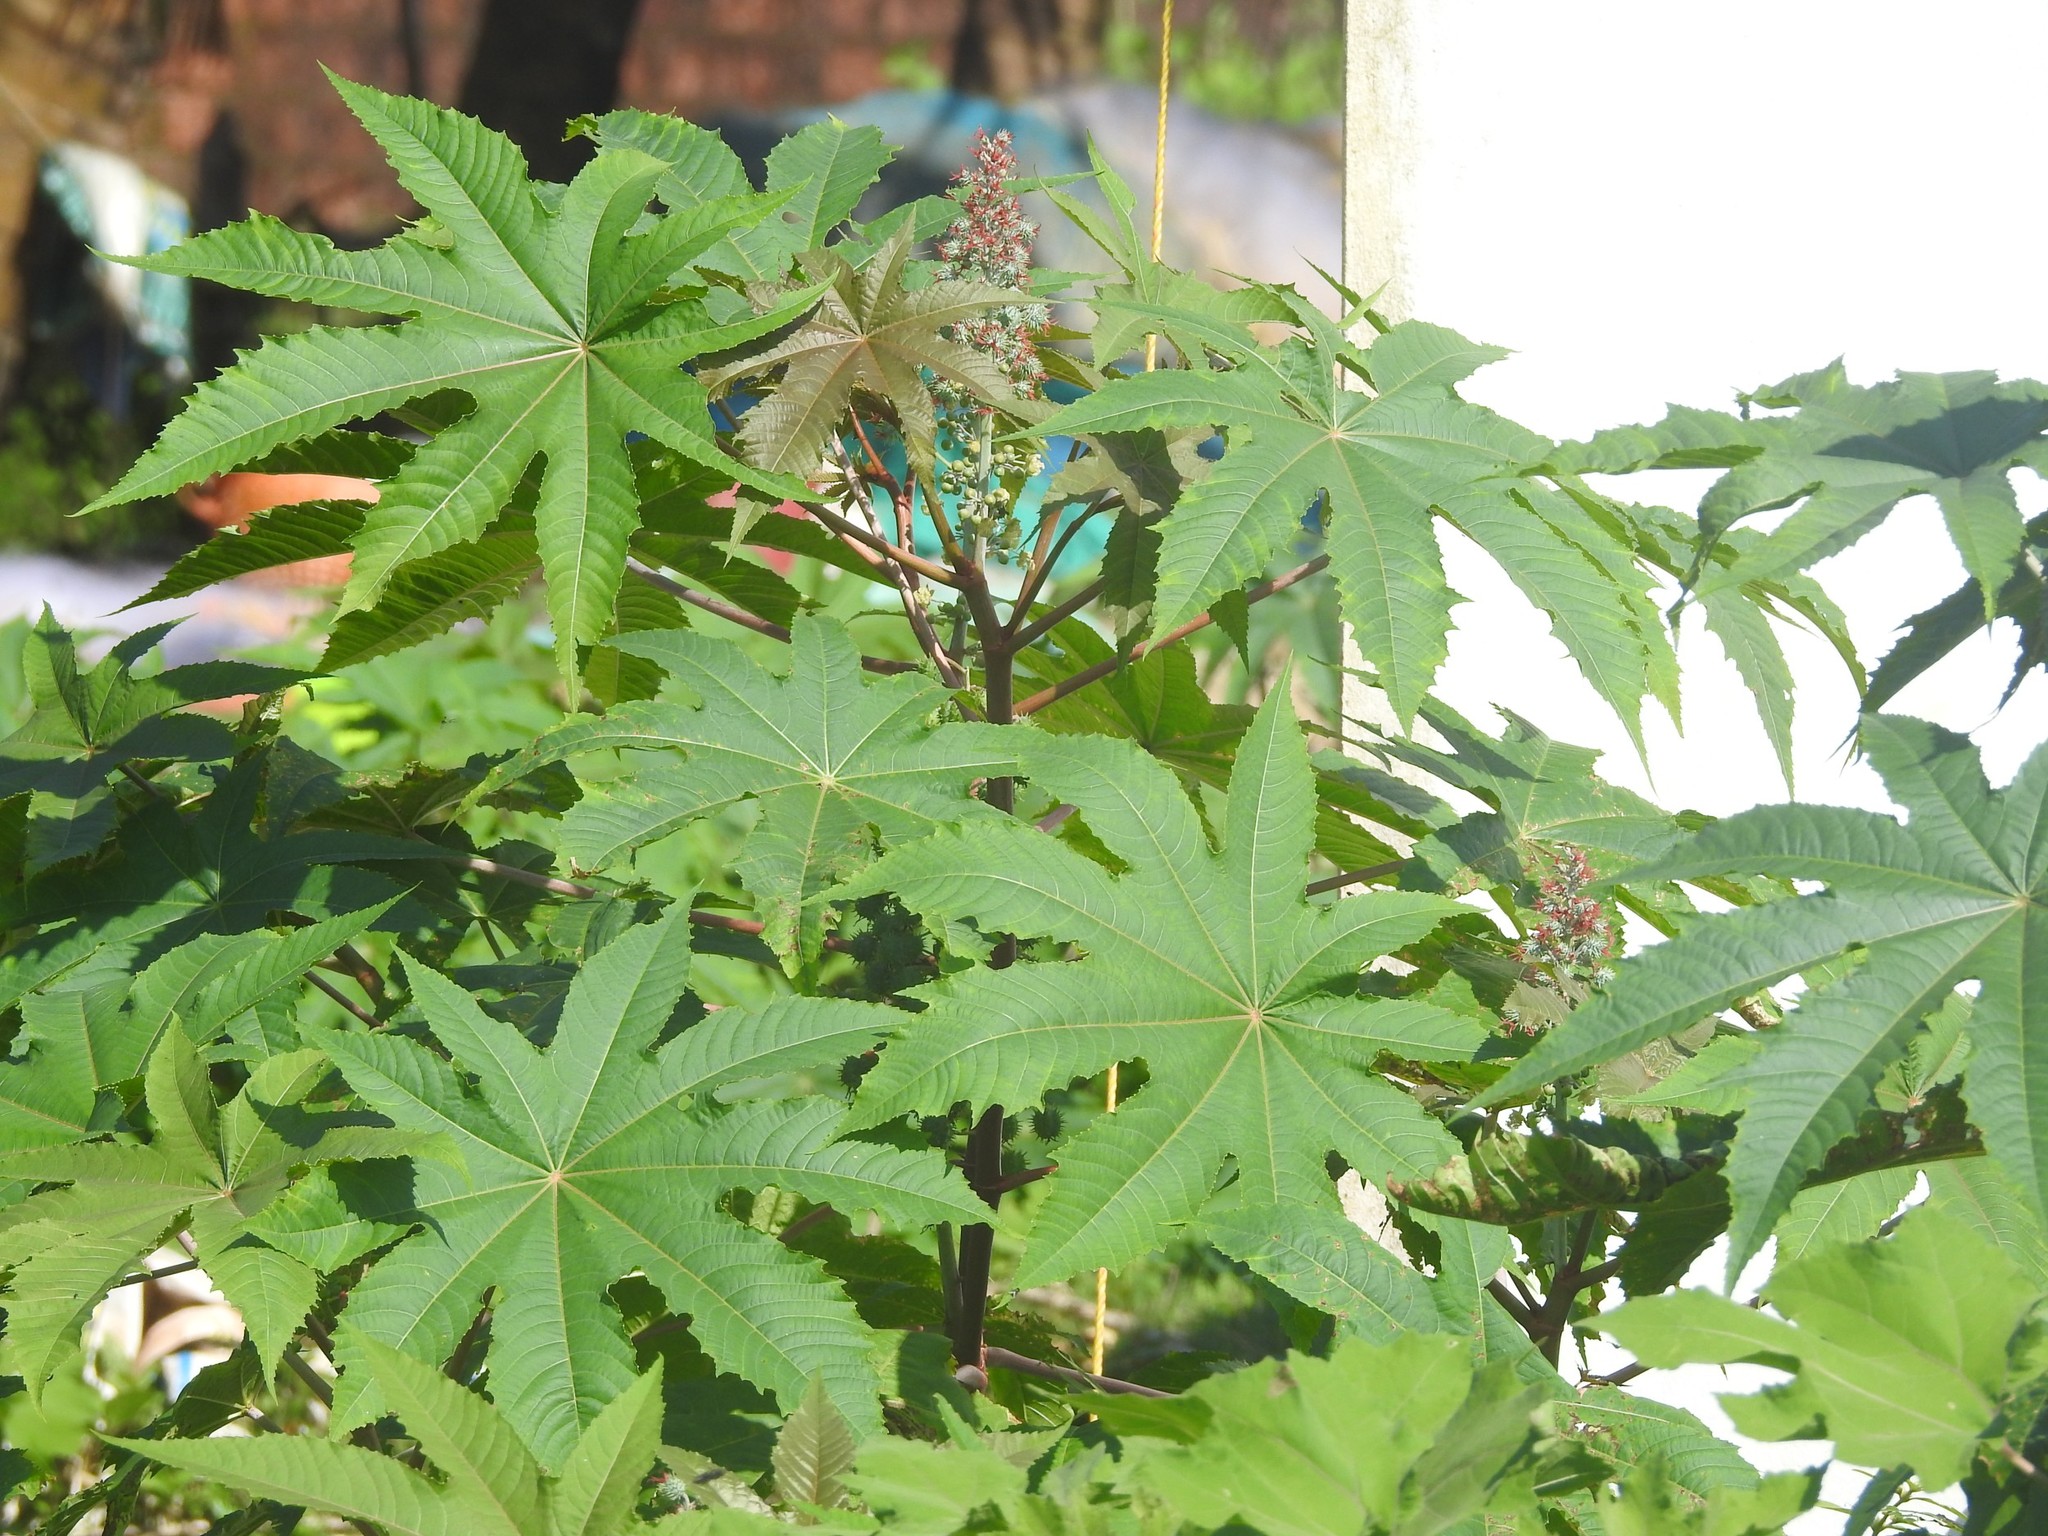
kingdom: Plantae
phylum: Tracheophyta
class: Magnoliopsida
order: Malpighiales
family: Euphorbiaceae
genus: Ricinus
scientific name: Ricinus communis
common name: Castor-oil-plant
